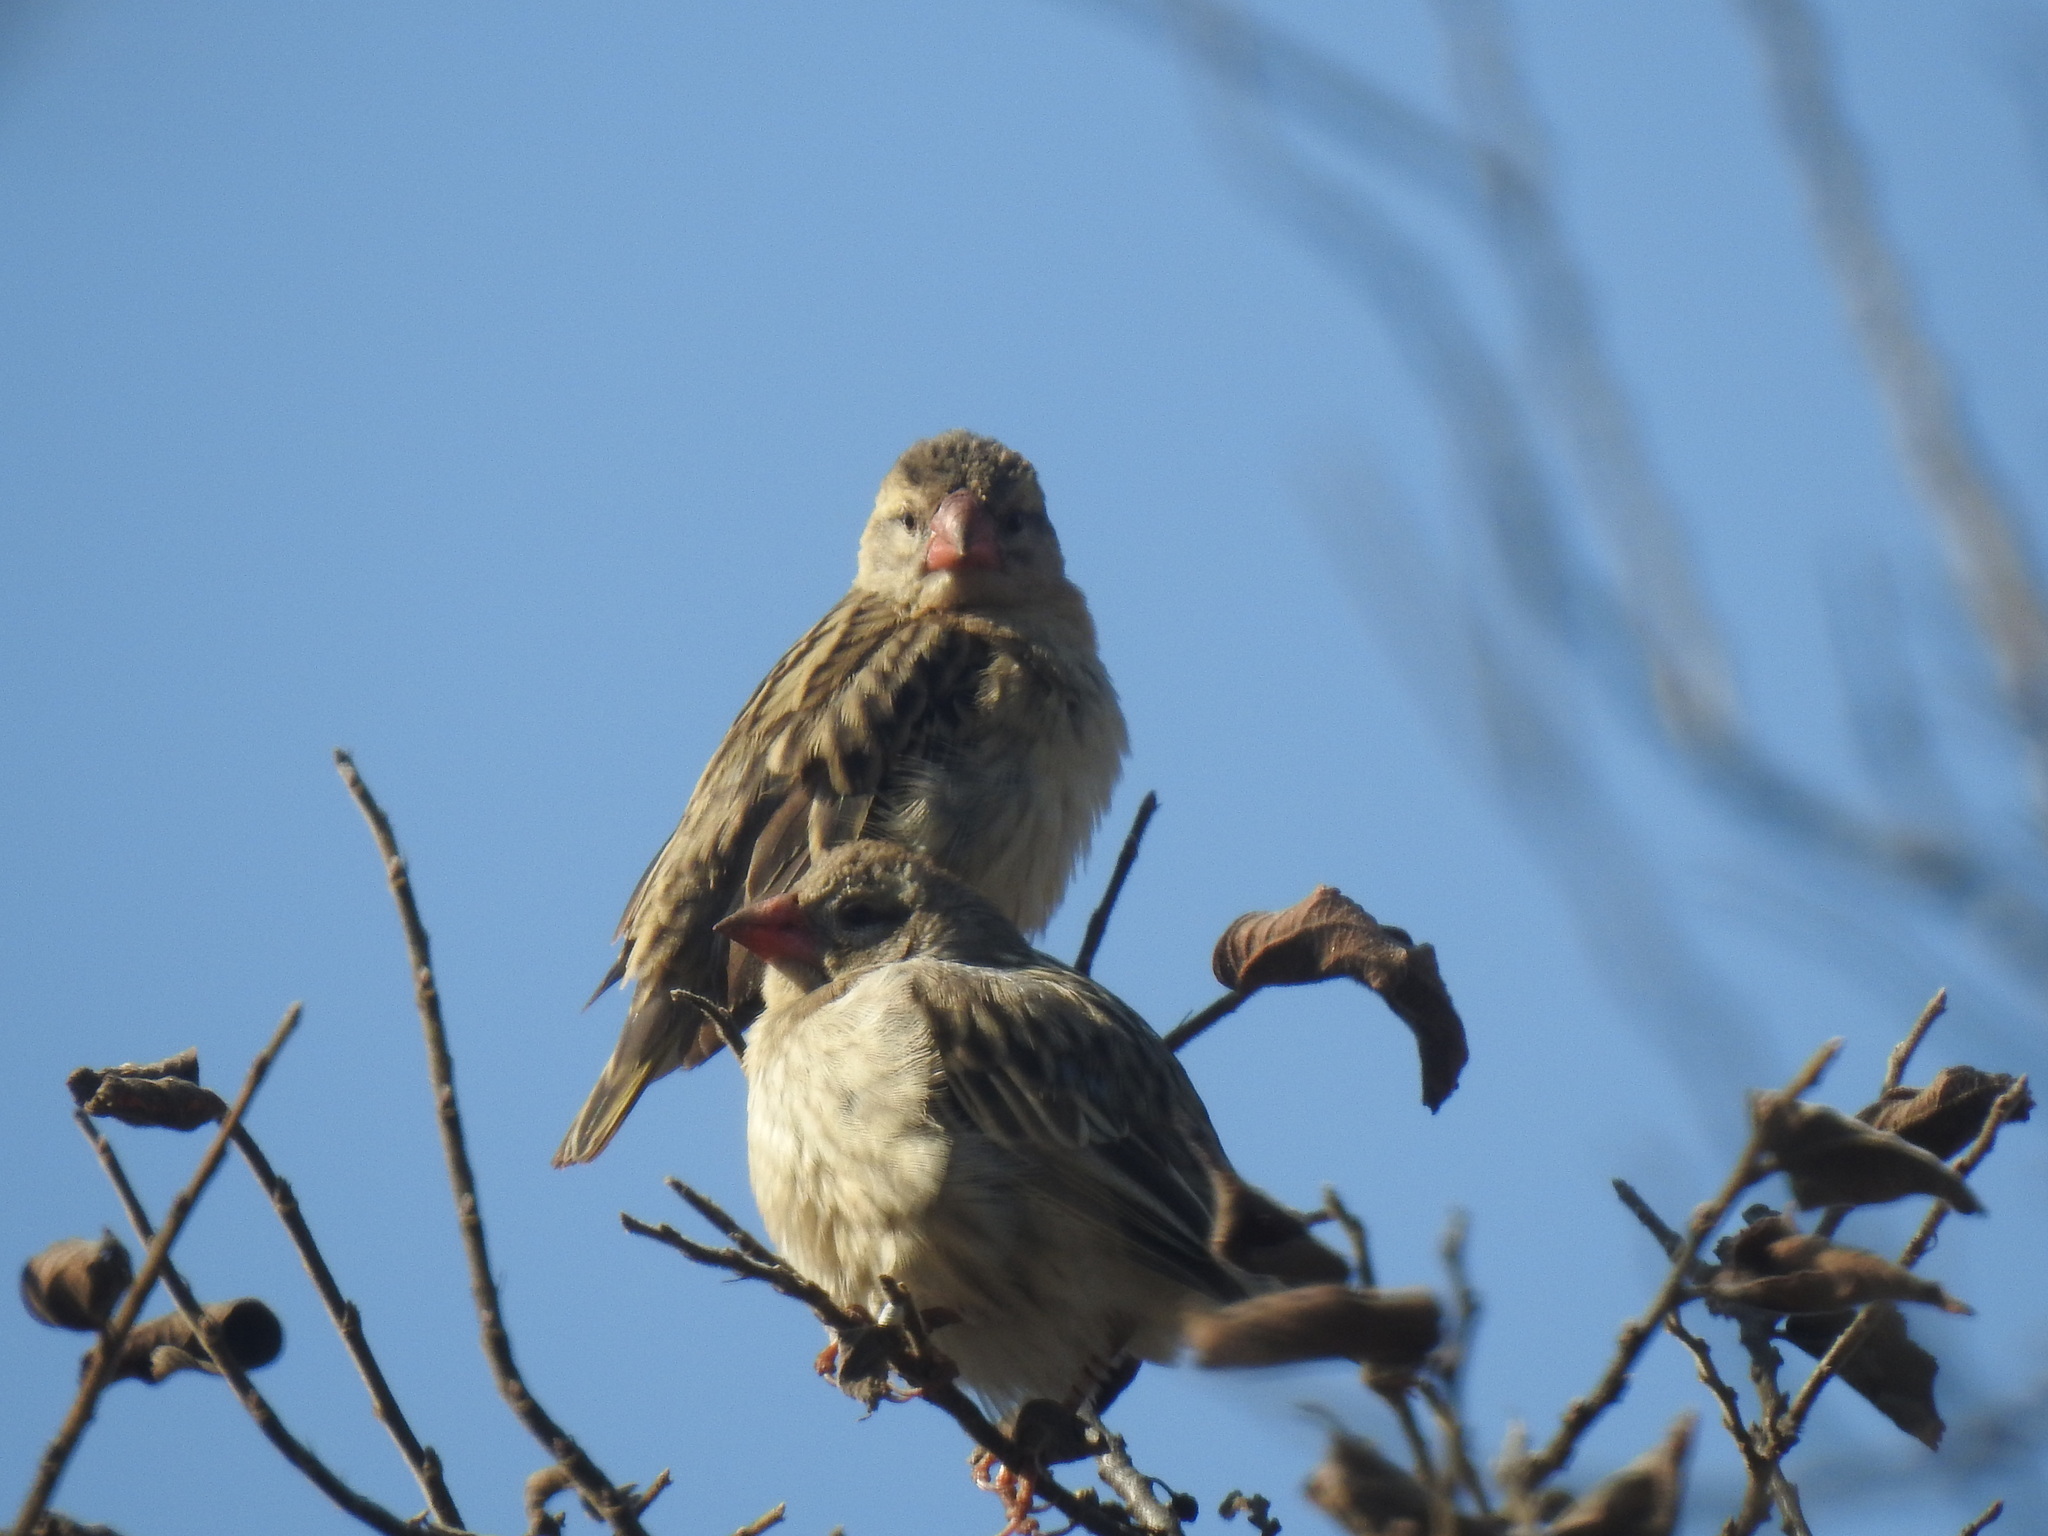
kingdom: Animalia
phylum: Chordata
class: Aves
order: Passeriformes
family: Ploceidae
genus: Quelea
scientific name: Quelea quelea
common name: Red-billed quelea
